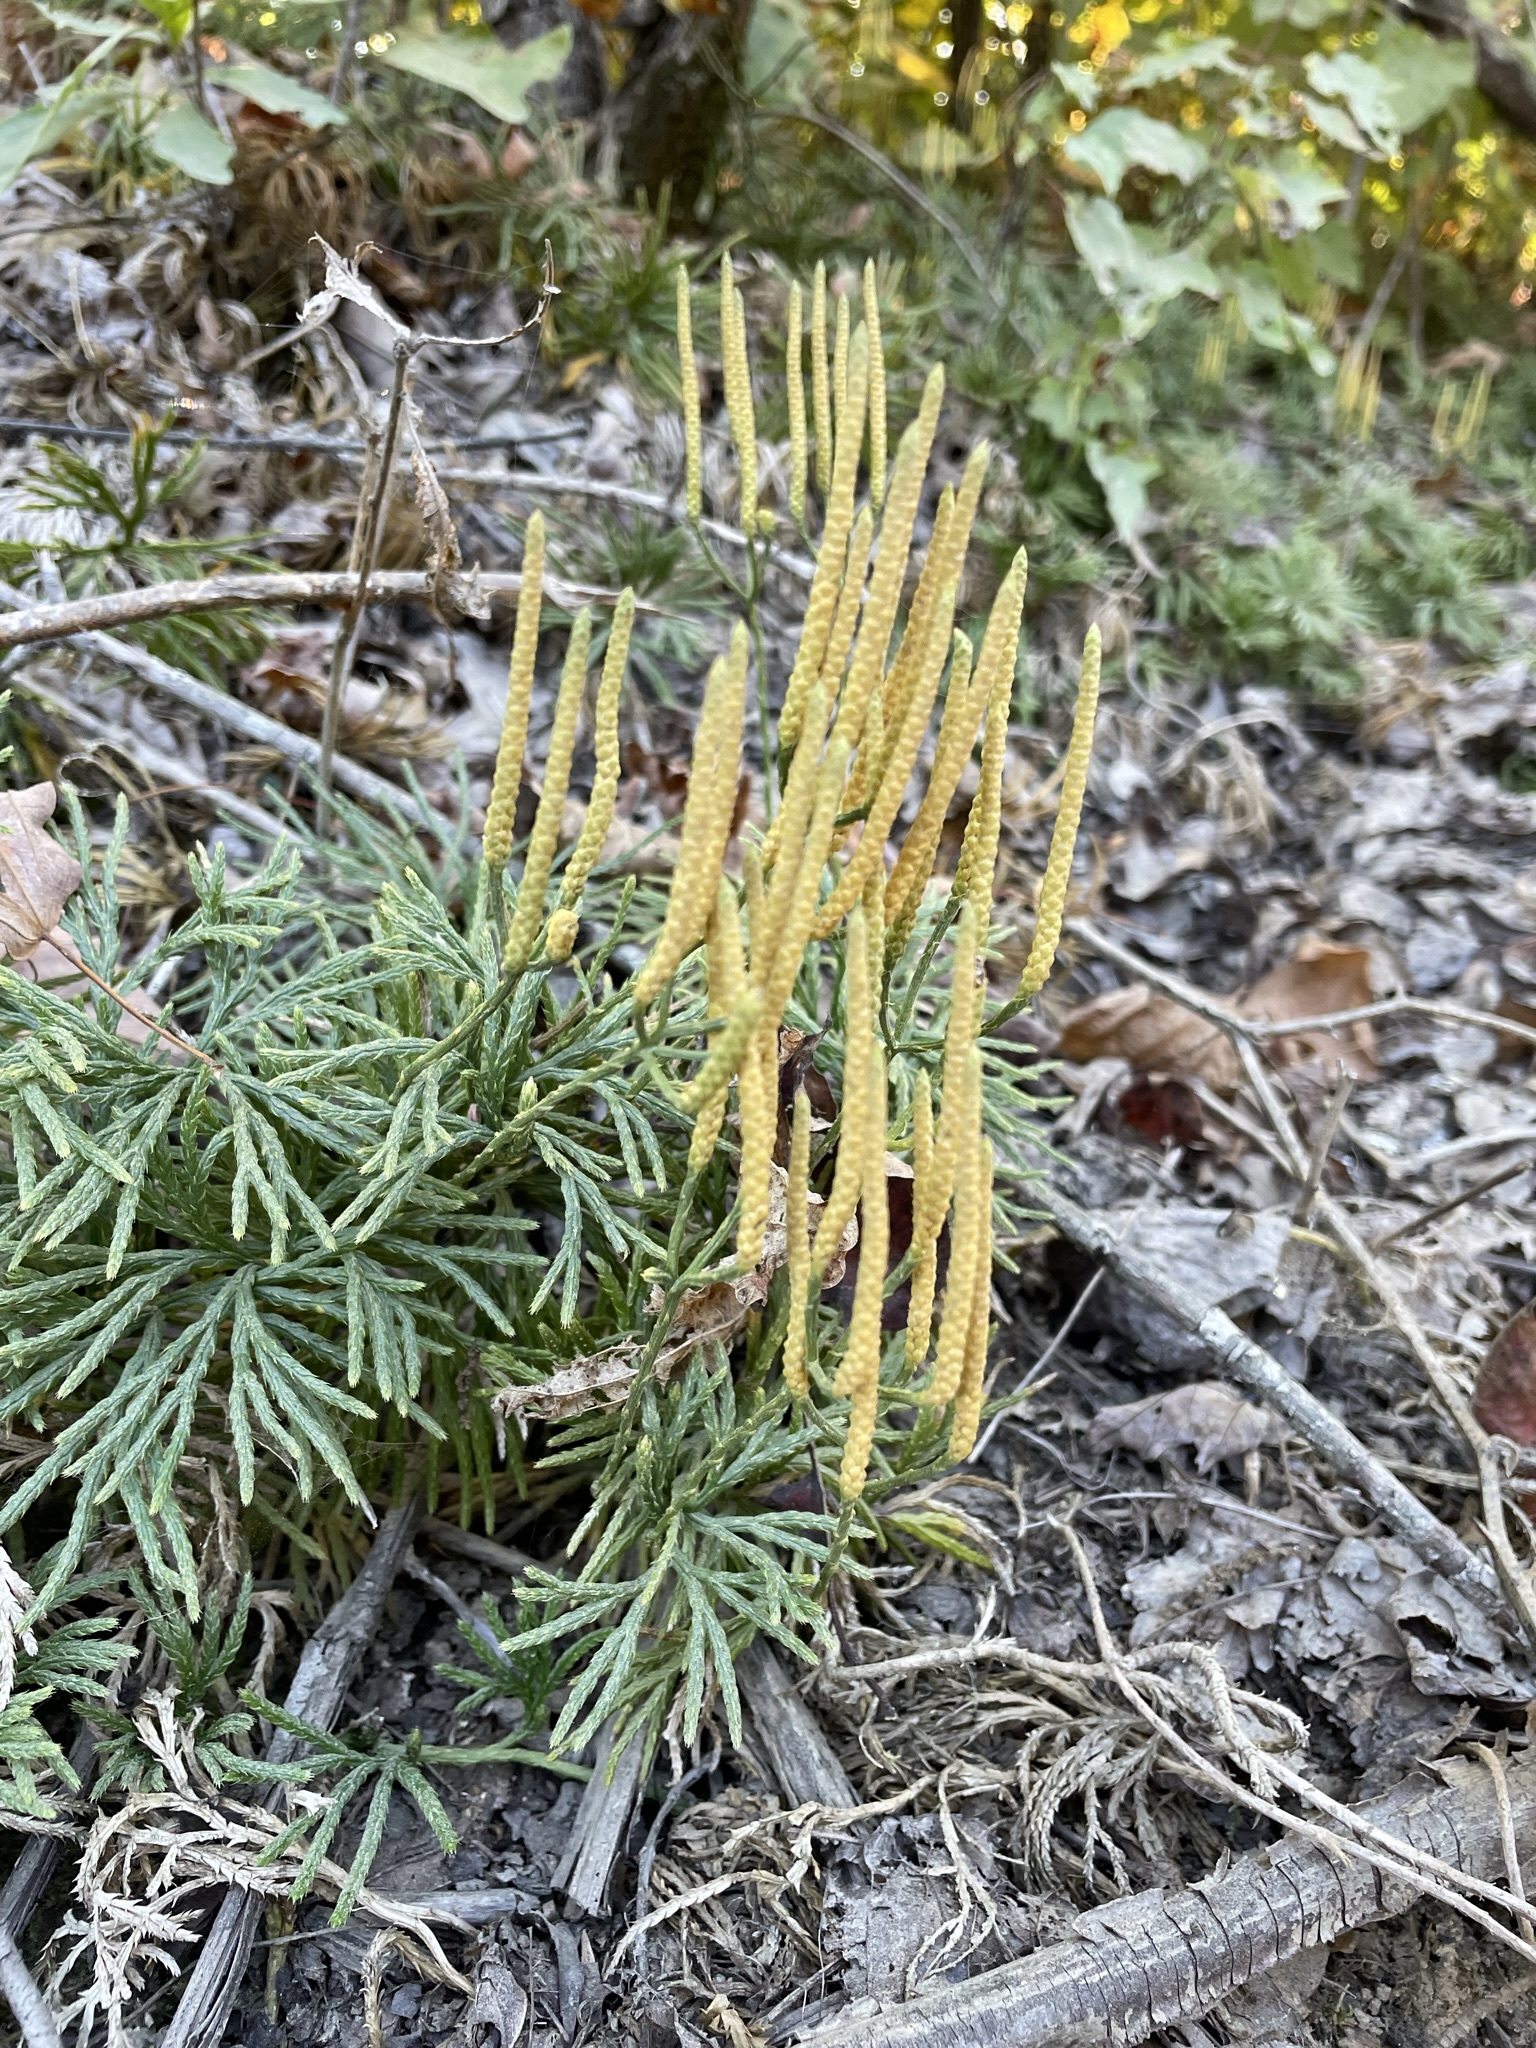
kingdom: Plantae
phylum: Tracheophyta
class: Lycopodiopsida
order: Lycopodiales
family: Lycopodiaceae
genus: Diphasiastrum
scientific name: Diphasiastrum digitatum
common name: Southern running-pine
